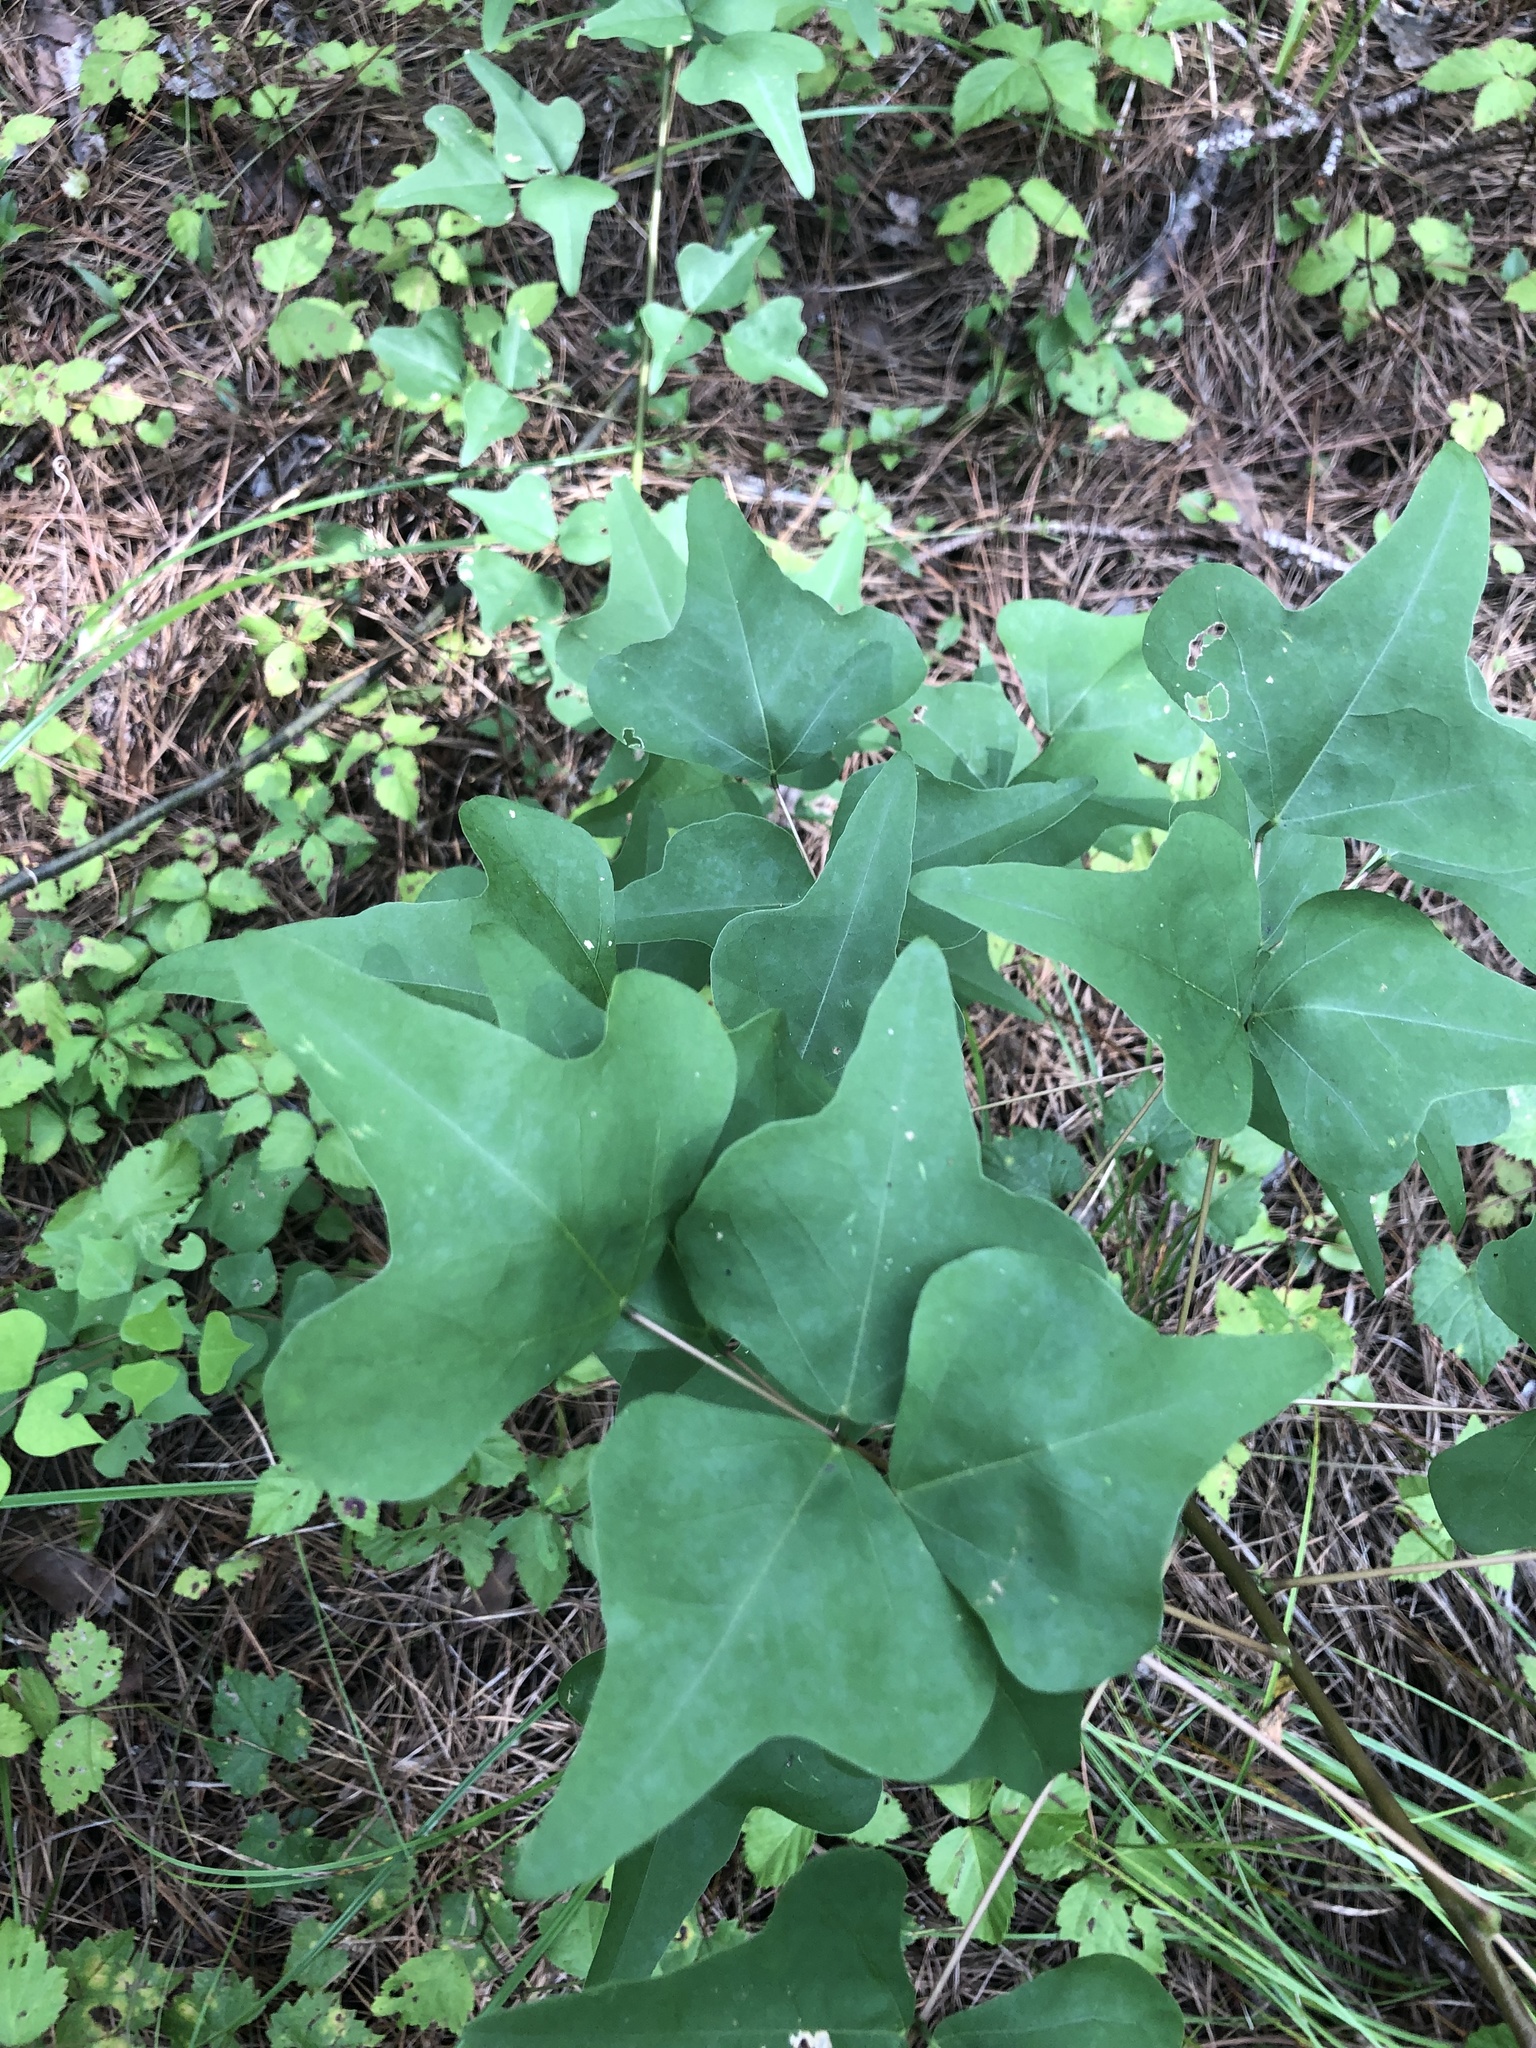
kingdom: Plantae
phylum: Tracheophyta
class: Magnoliopsida
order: Fabales
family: Fabaceae
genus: Erythrina
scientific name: Erythrina herbacea
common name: Coral-bean
